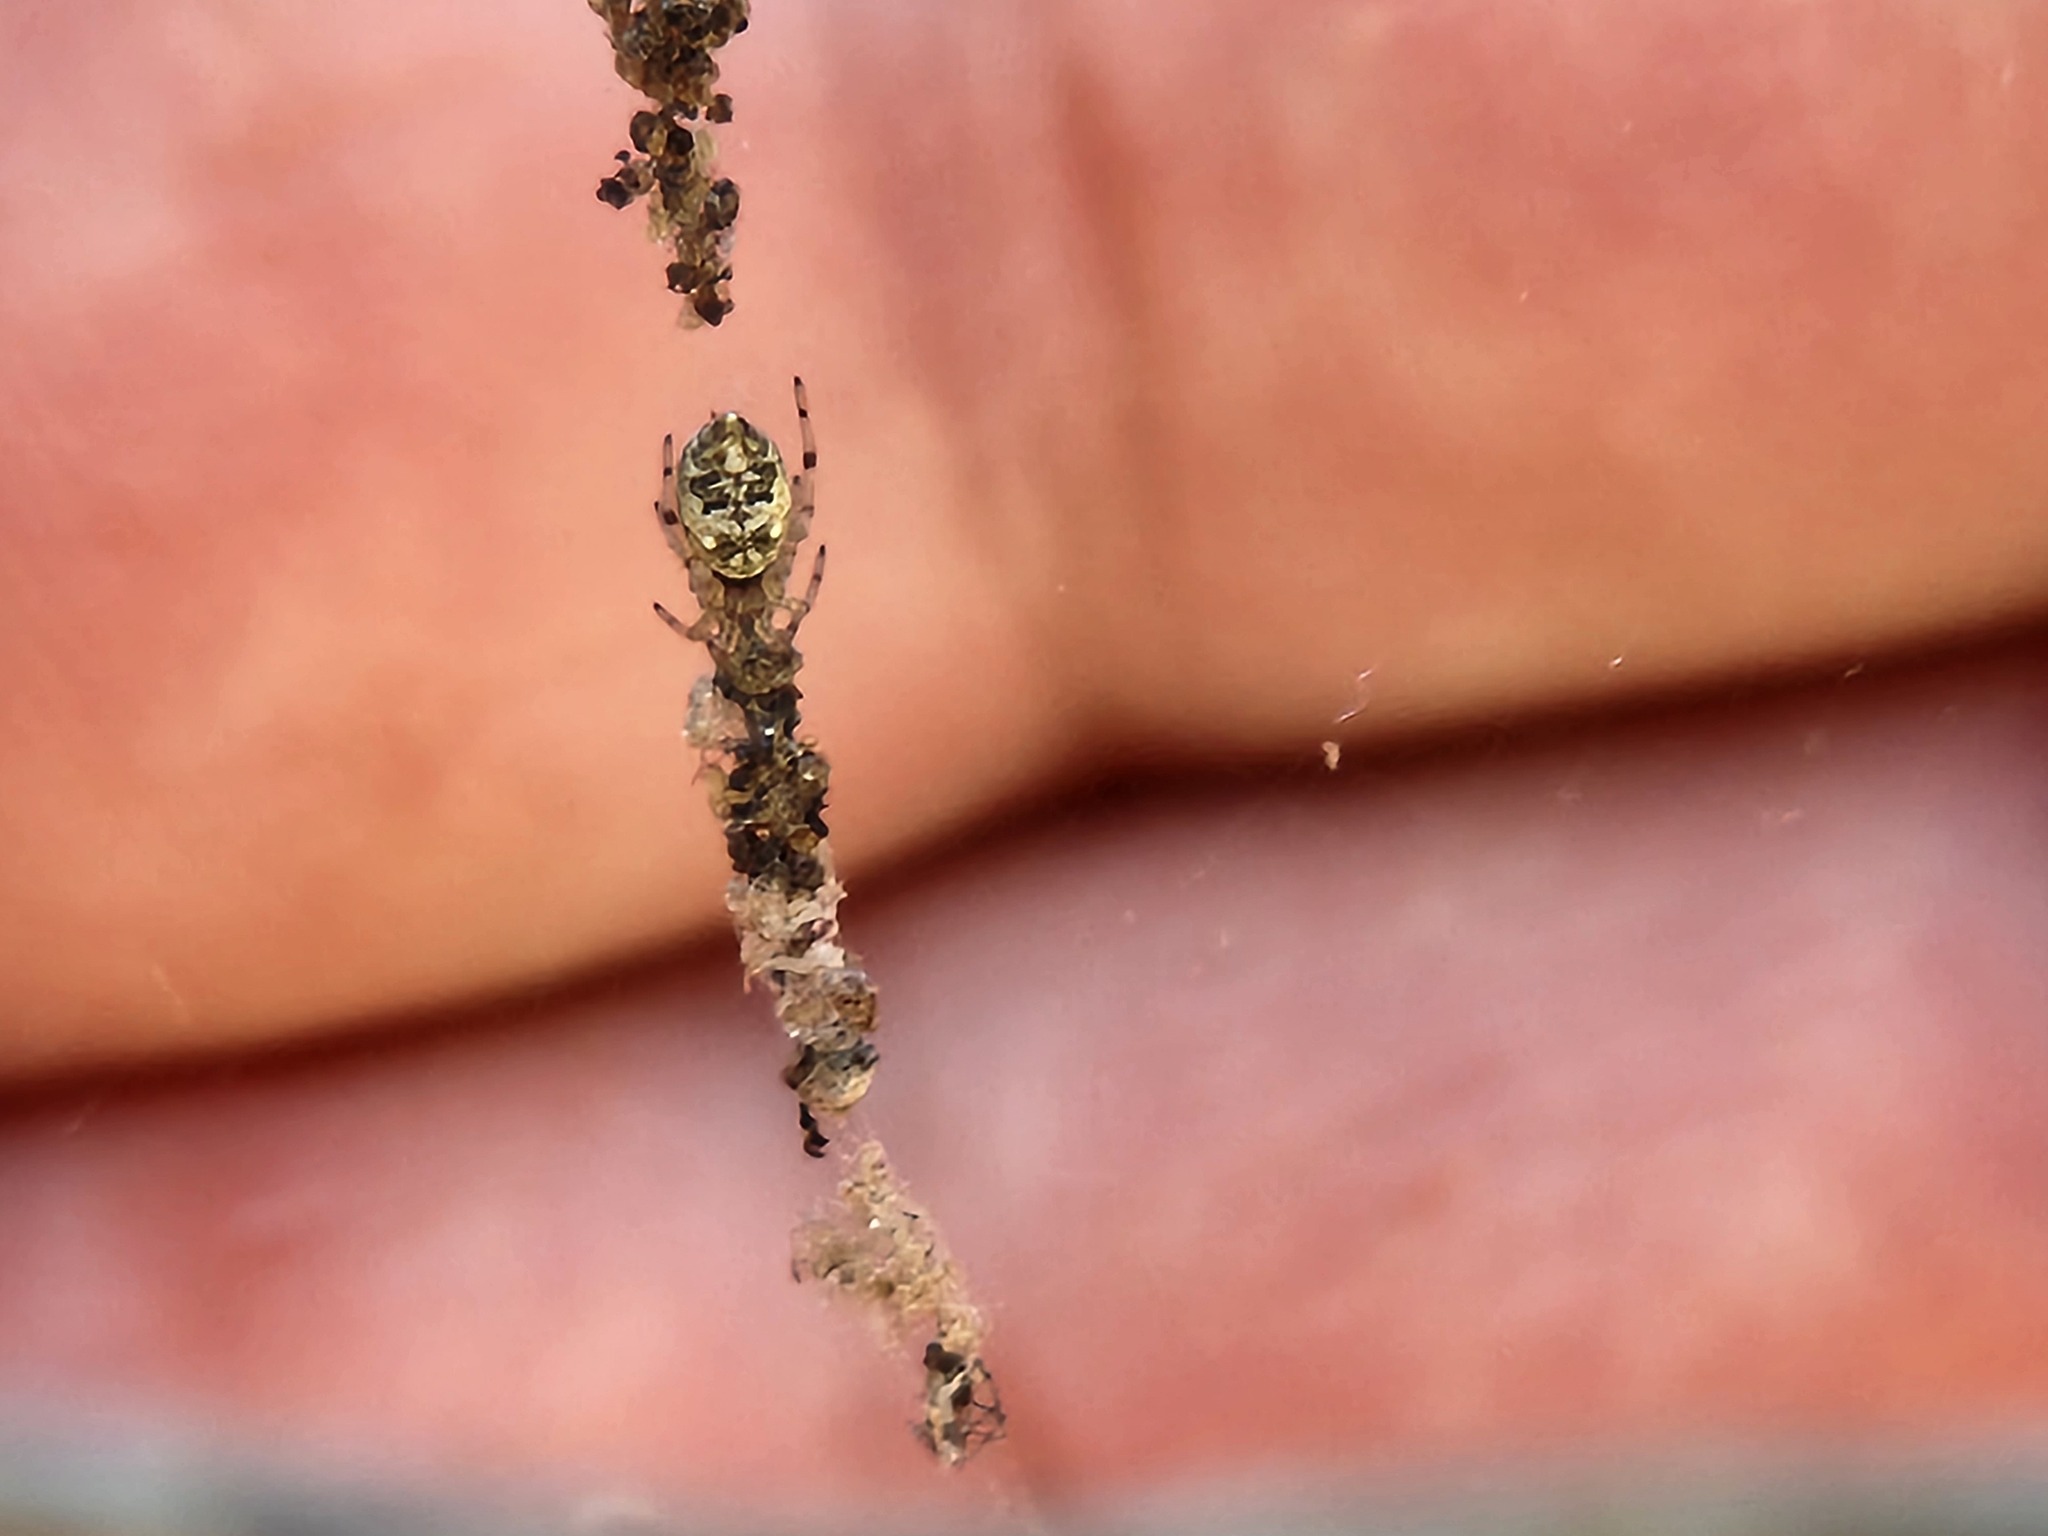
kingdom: Animalia
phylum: Arthropoda
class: Arachnida
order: Araneae
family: Araneidae
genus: Cyclosa
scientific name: Cyclosa turbinata
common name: Orb weavers
